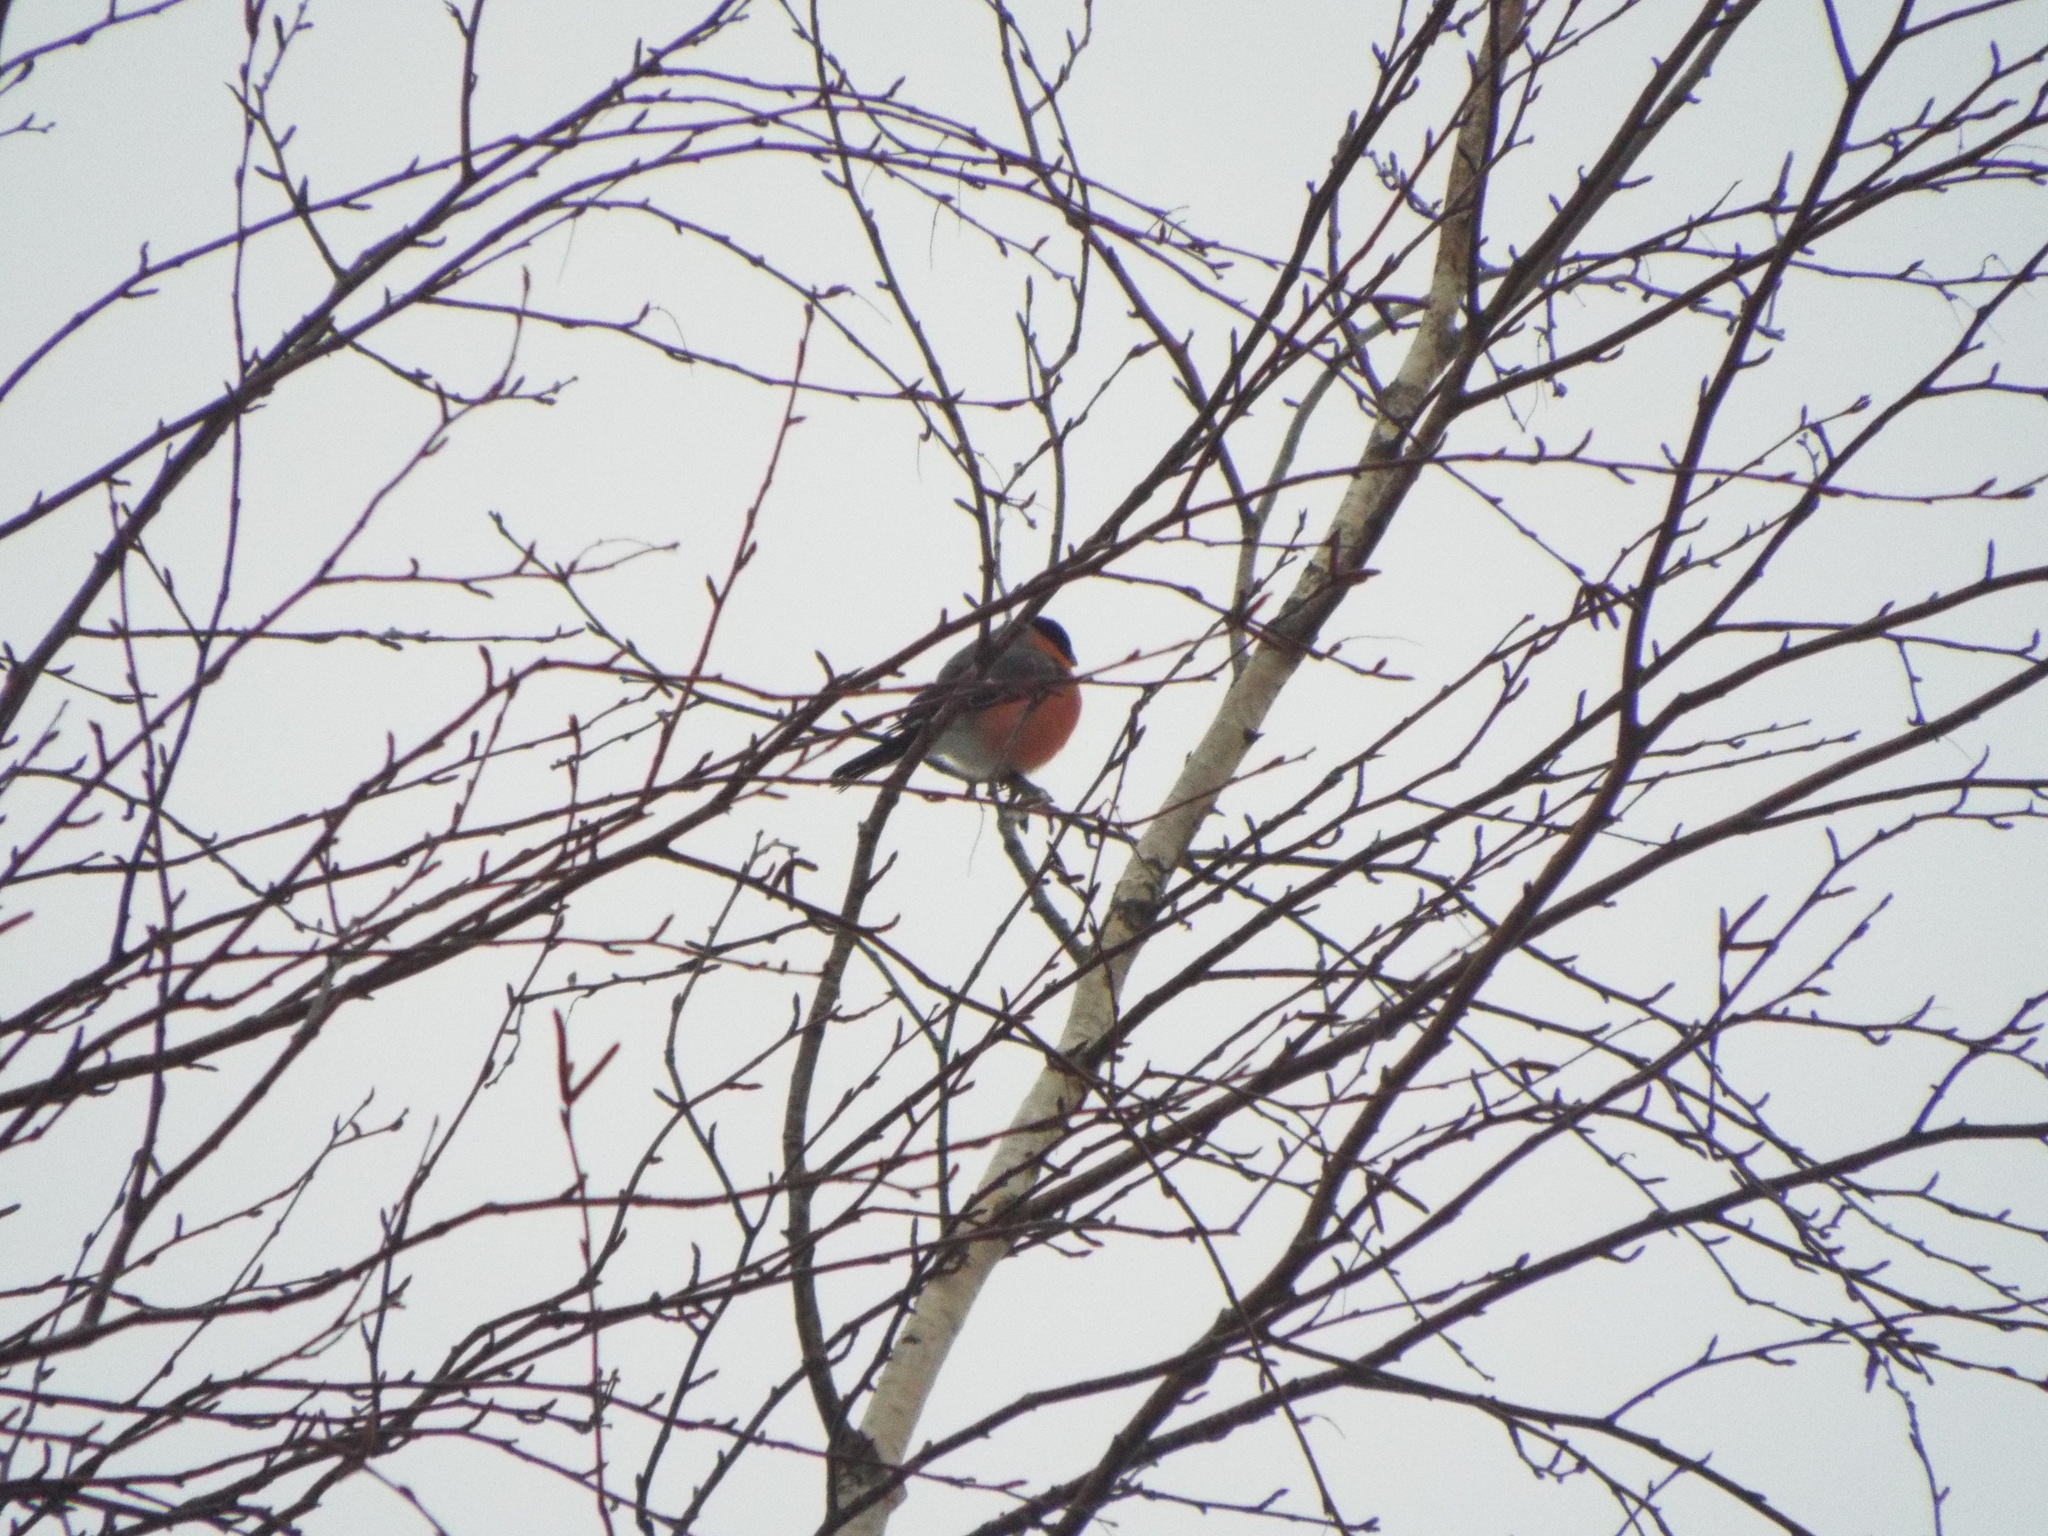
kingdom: Animalia
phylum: Chordata
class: Aves
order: Passeriformes
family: Fringillidae
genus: Pyrrhula
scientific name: Pyrrhula pyrrhula
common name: Eurasian bullfinch
